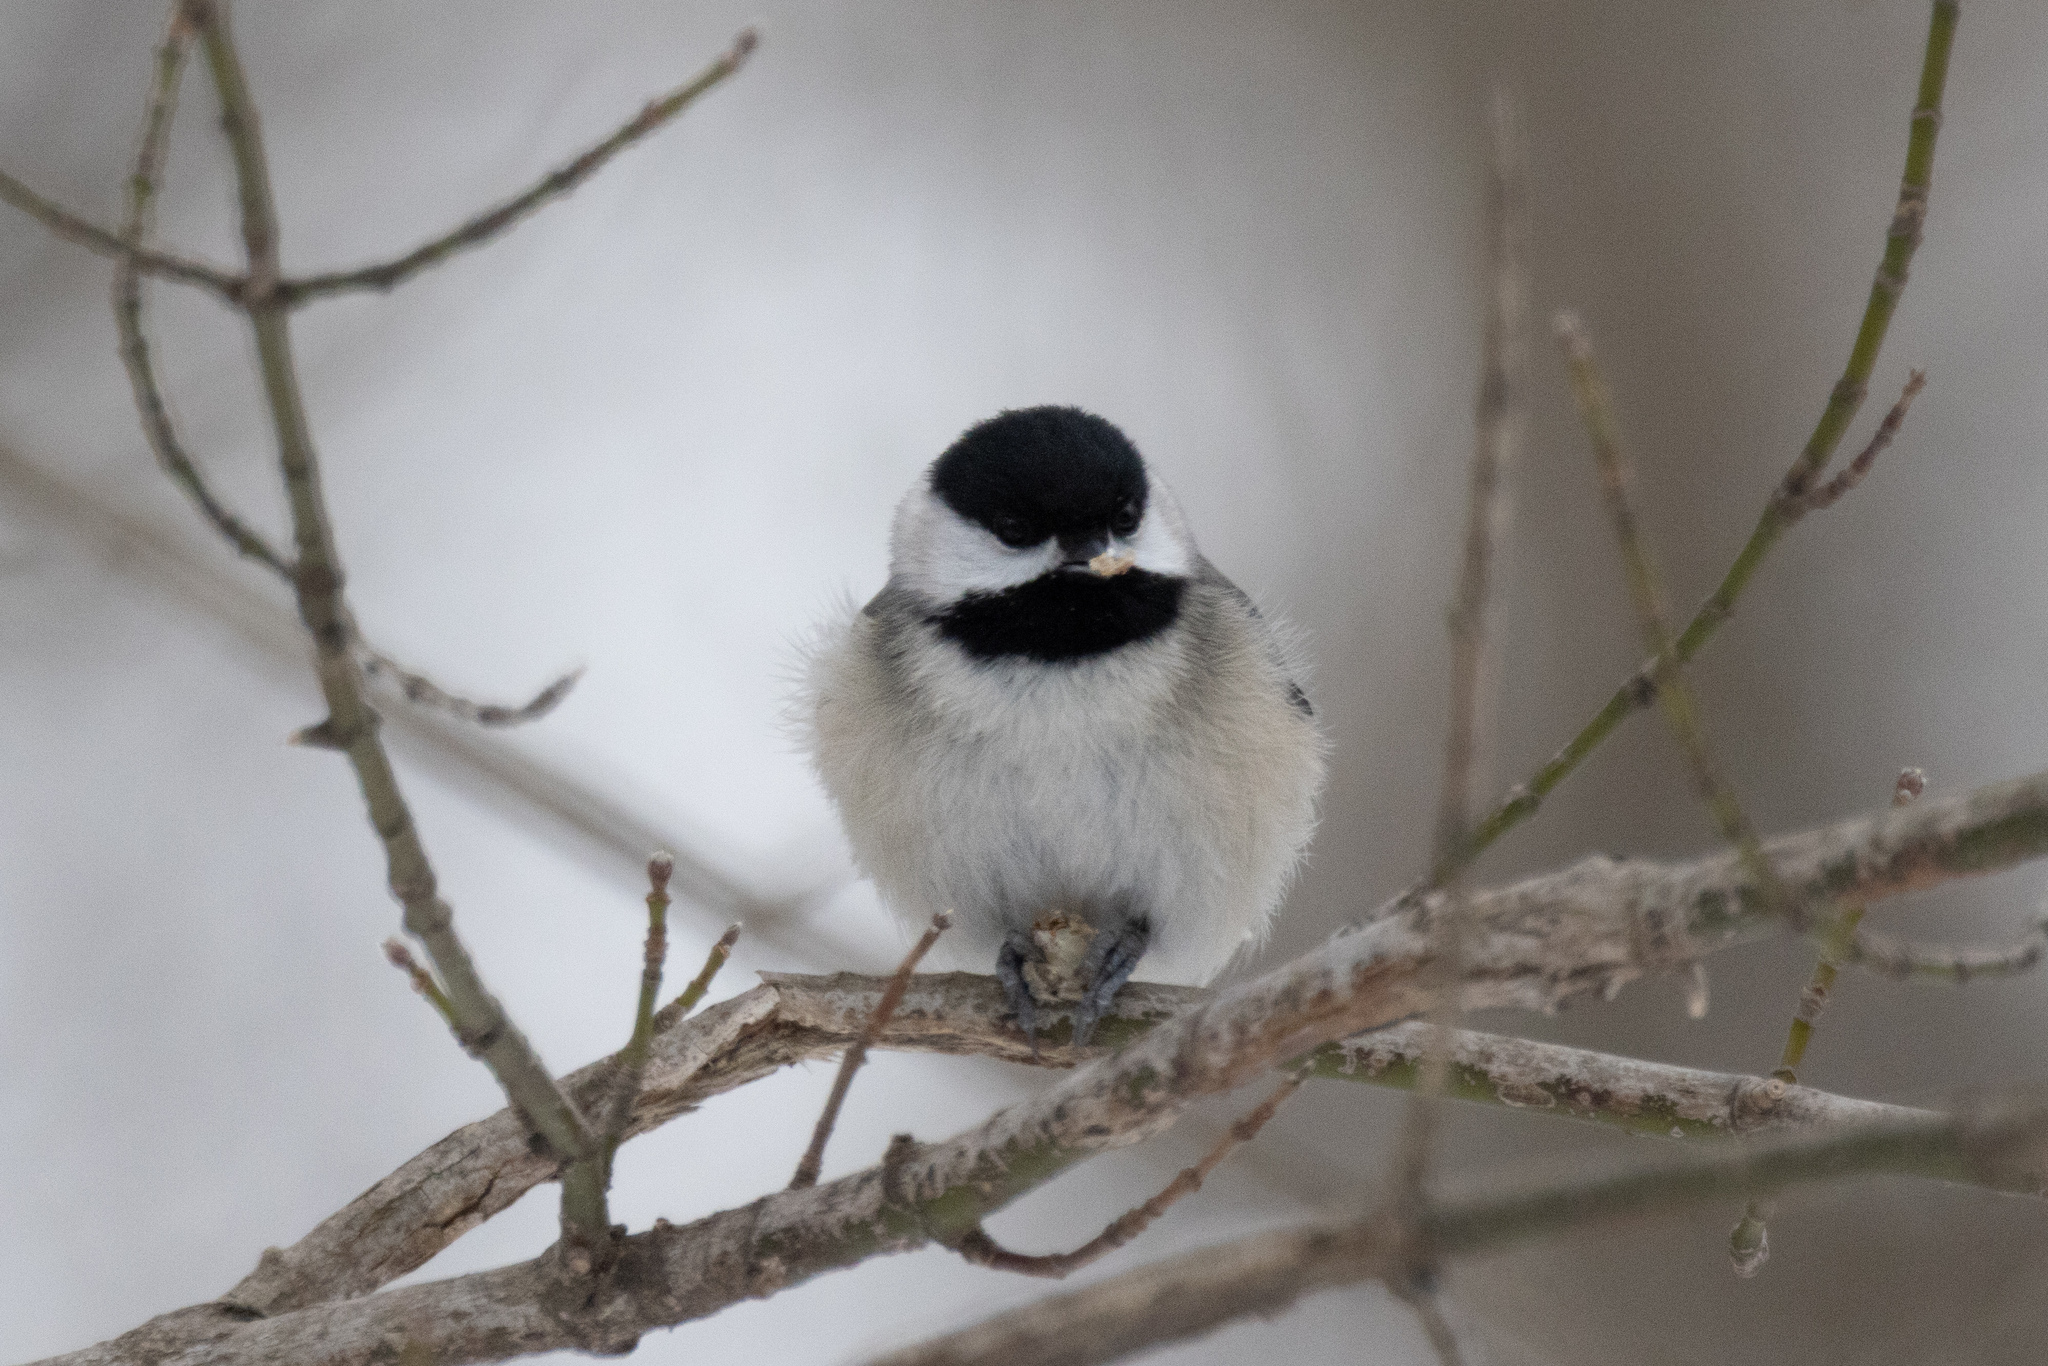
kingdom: Animalia
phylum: Chordata
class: Aves
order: Passeriformes
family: Paridae
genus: Poecile
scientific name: Poecile carolinensis
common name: Carolina chickadee
